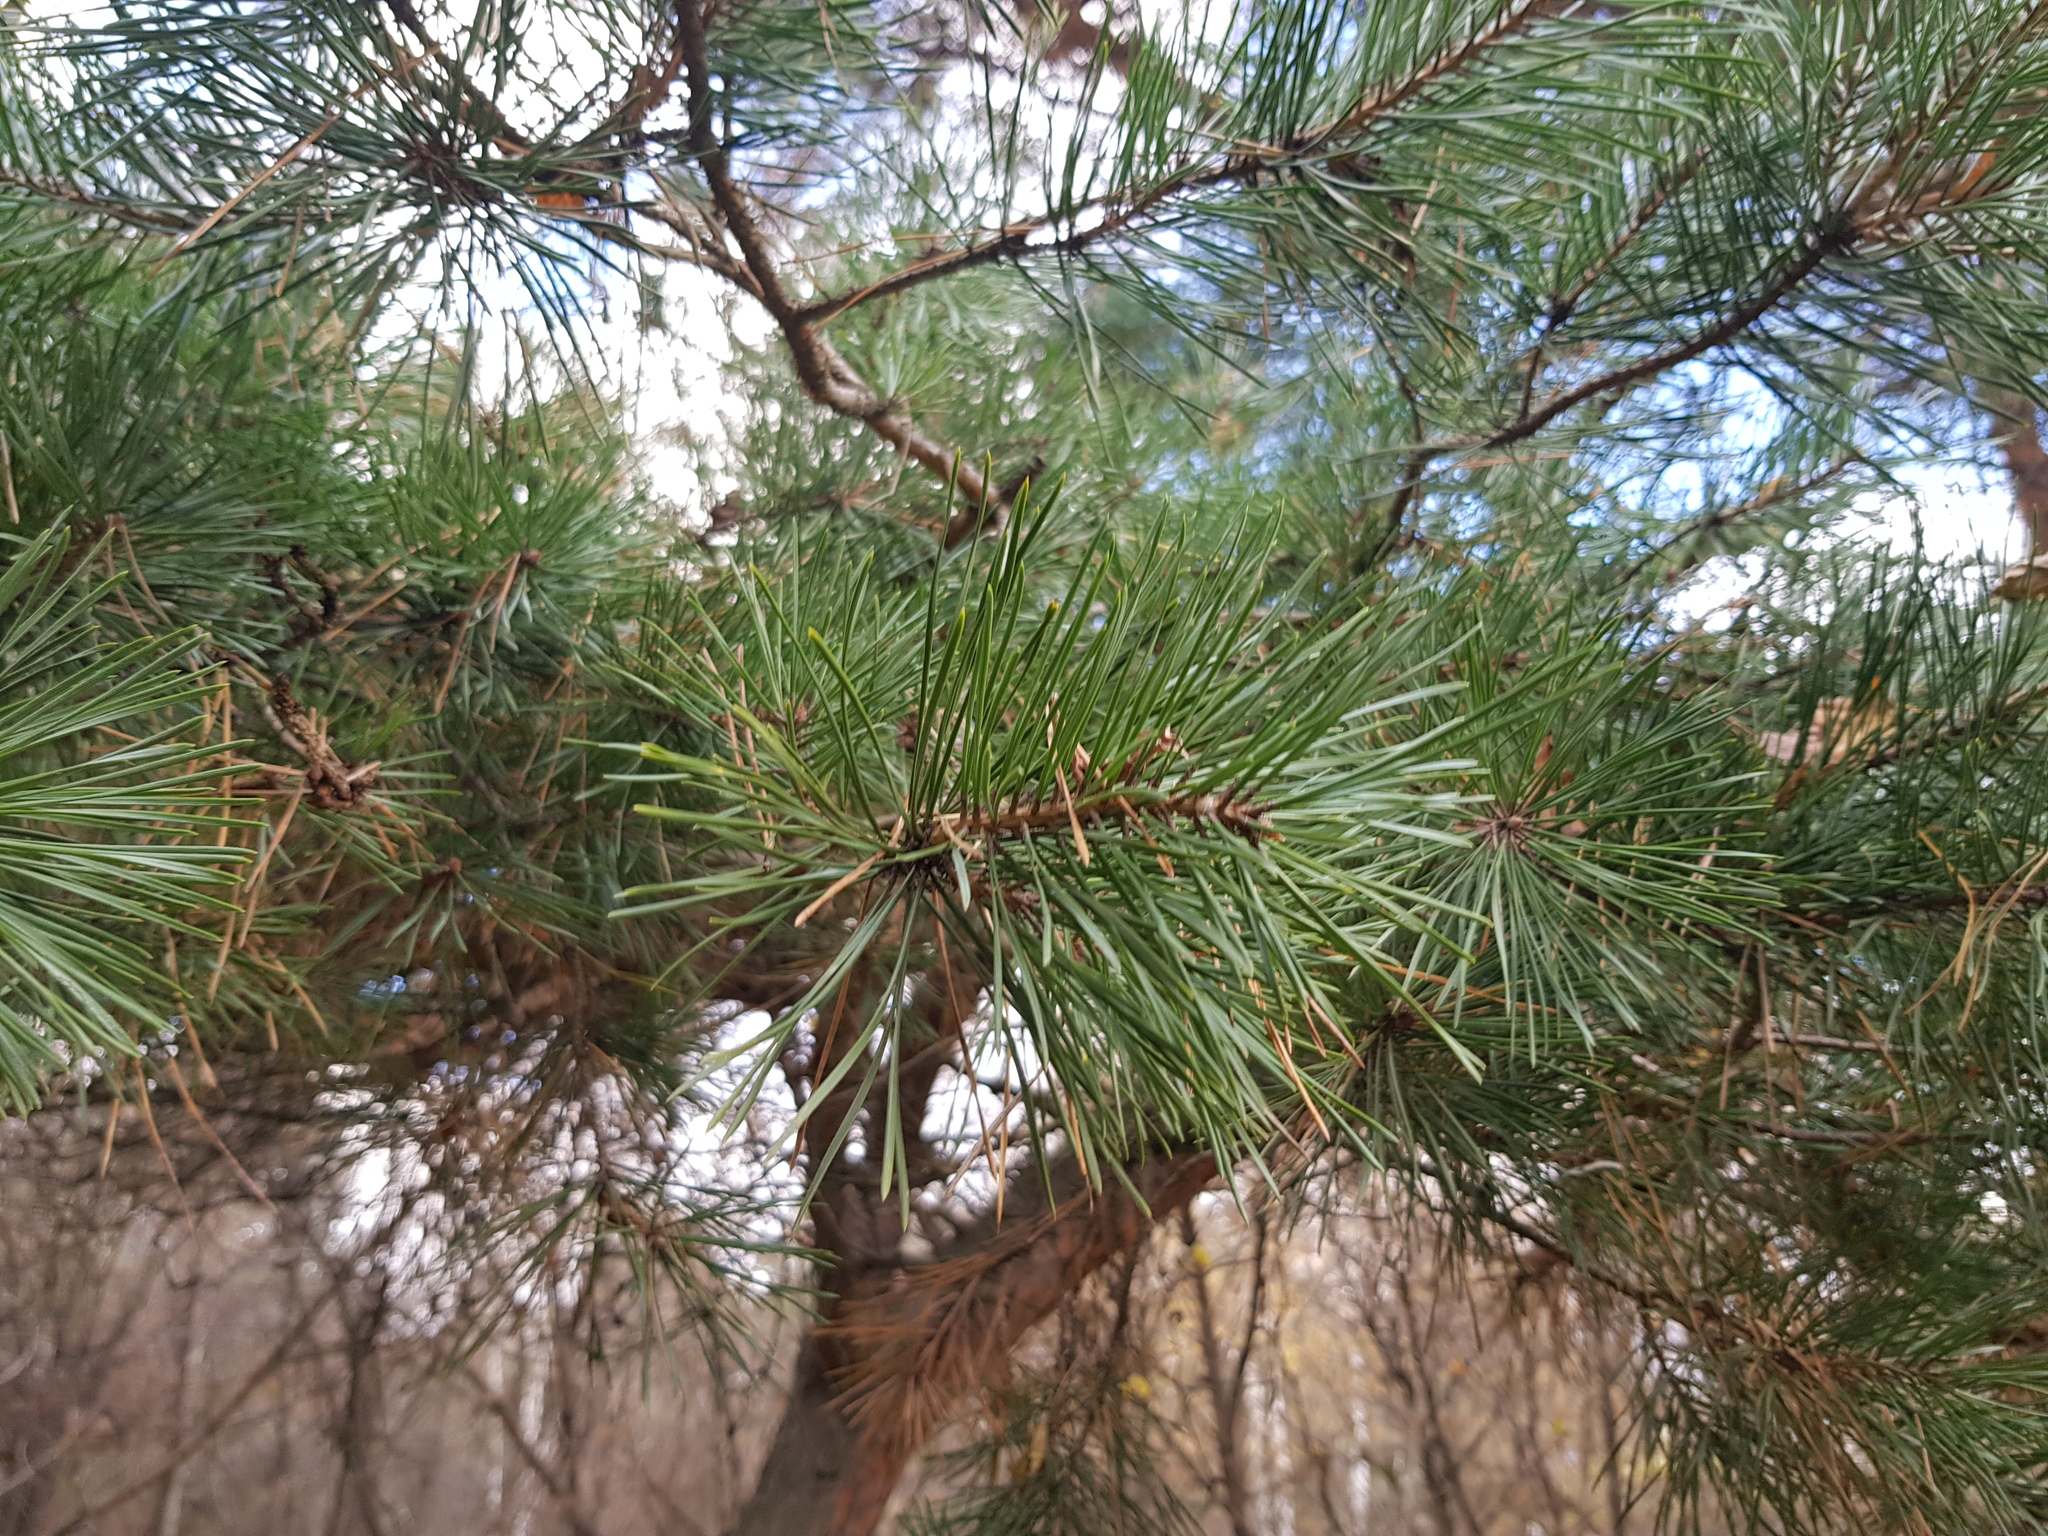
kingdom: Plantae
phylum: Tracheophyta
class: Pinopsida
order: Pinales
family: Pinaceae
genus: Pinus
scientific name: Pinus sylvestris
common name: Scots pine
